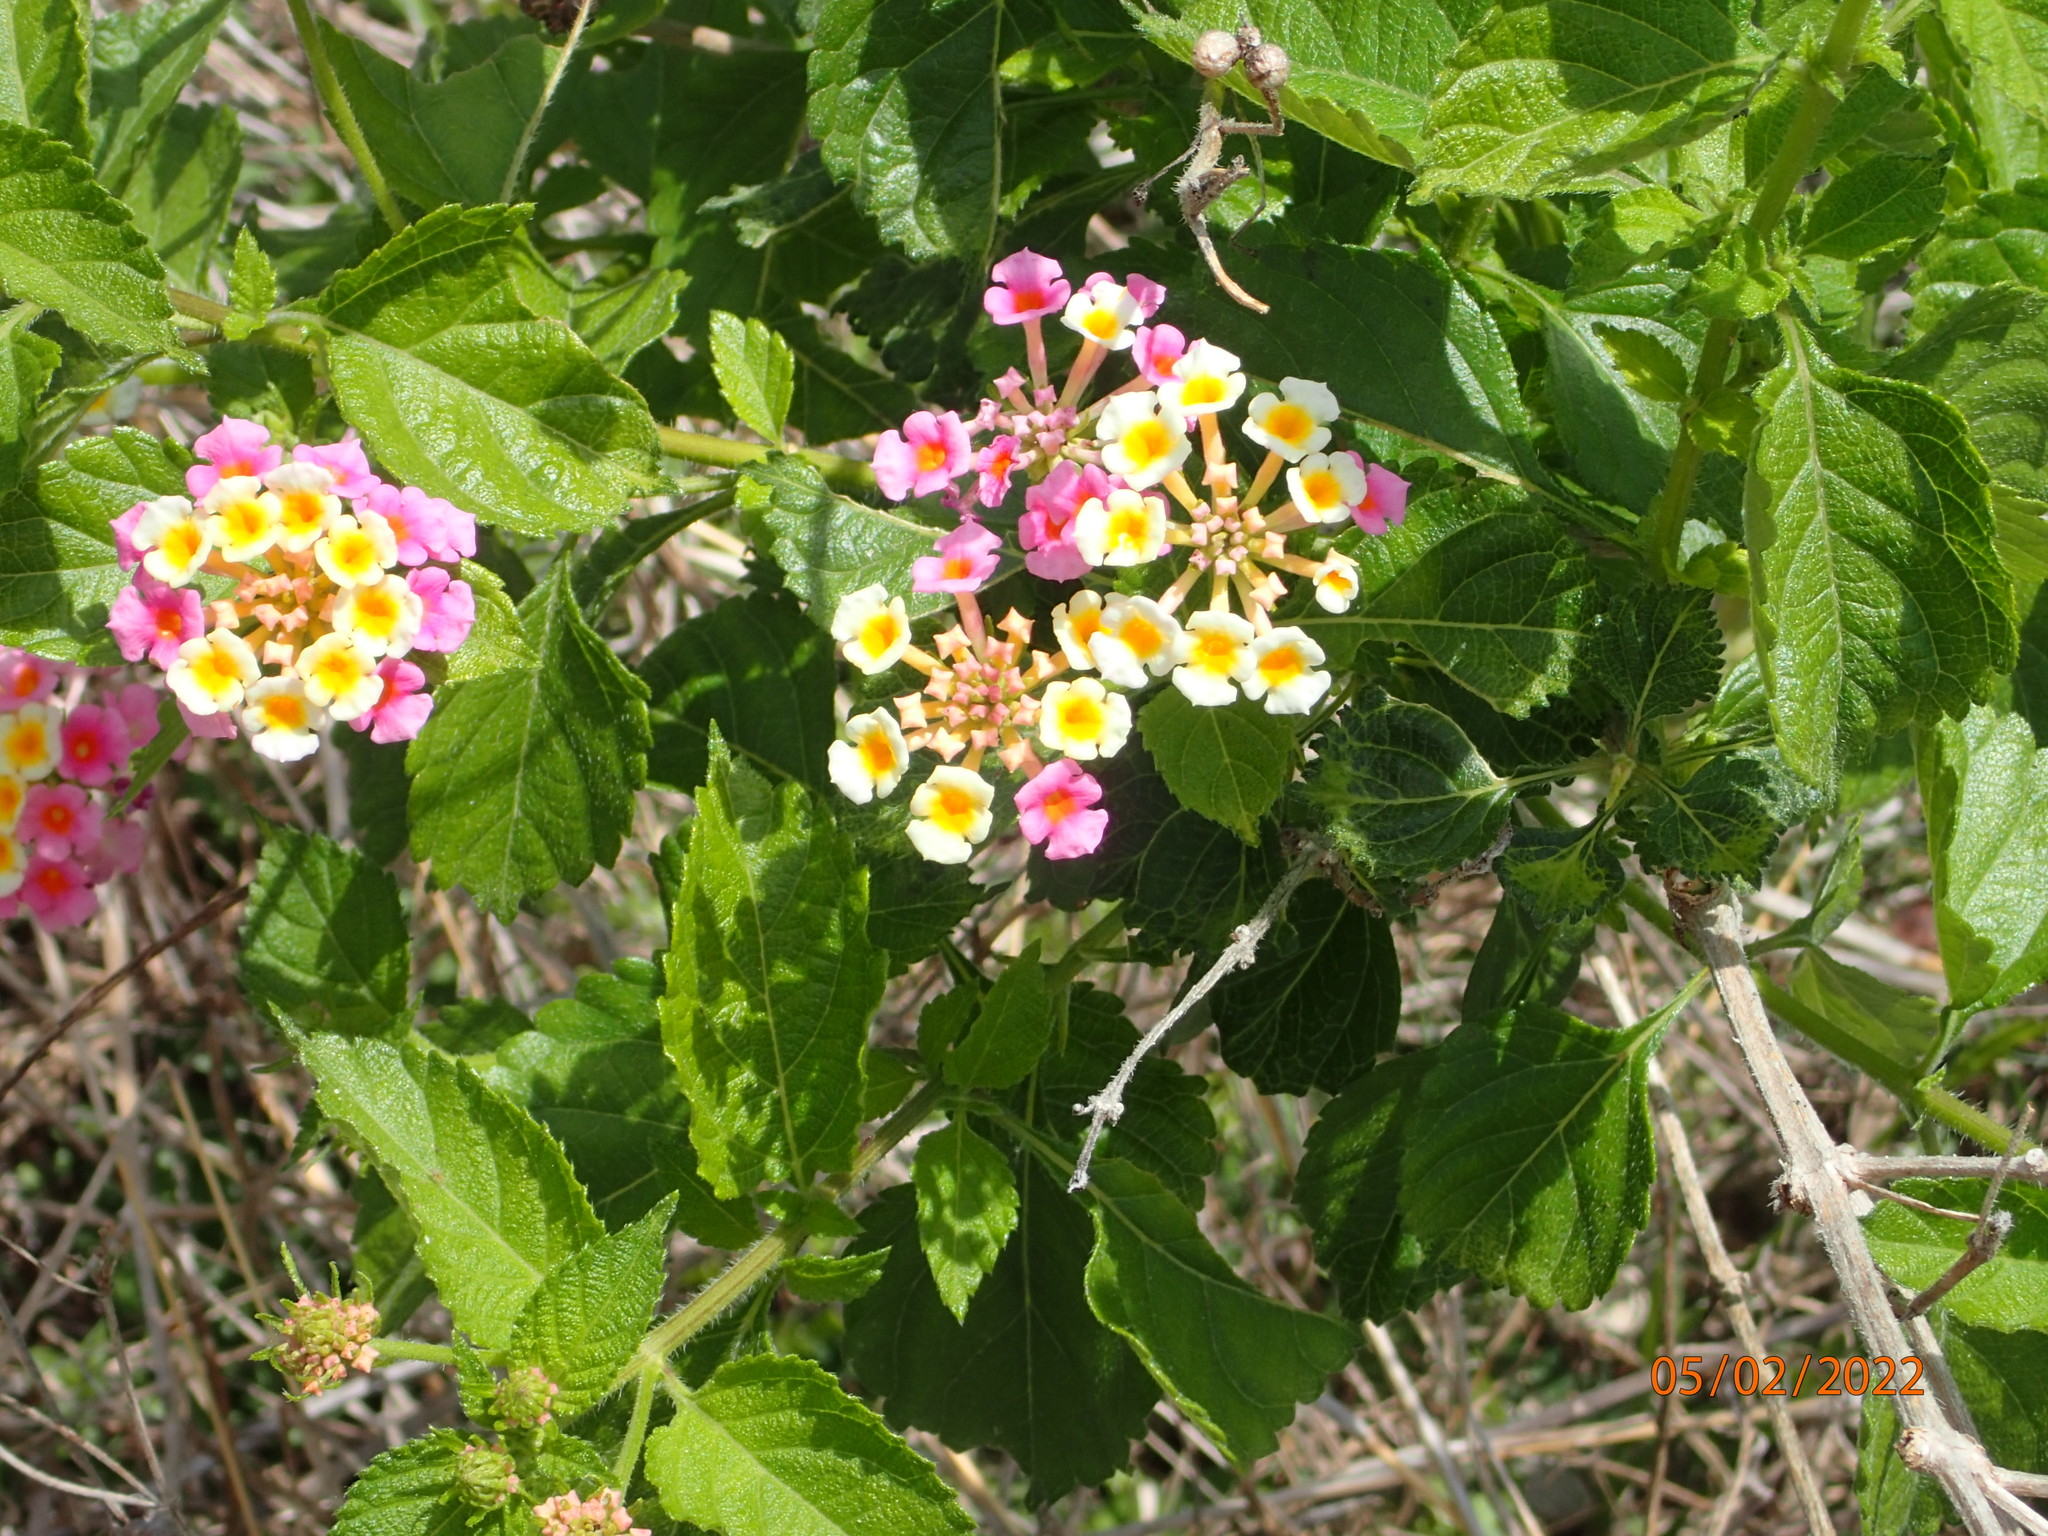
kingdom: Plantae
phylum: Tracheophyta
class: Magnoliopsida
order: Lamiales
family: Verbenaceae
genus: Lantana
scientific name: Lantana strigocamara
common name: Lantana
